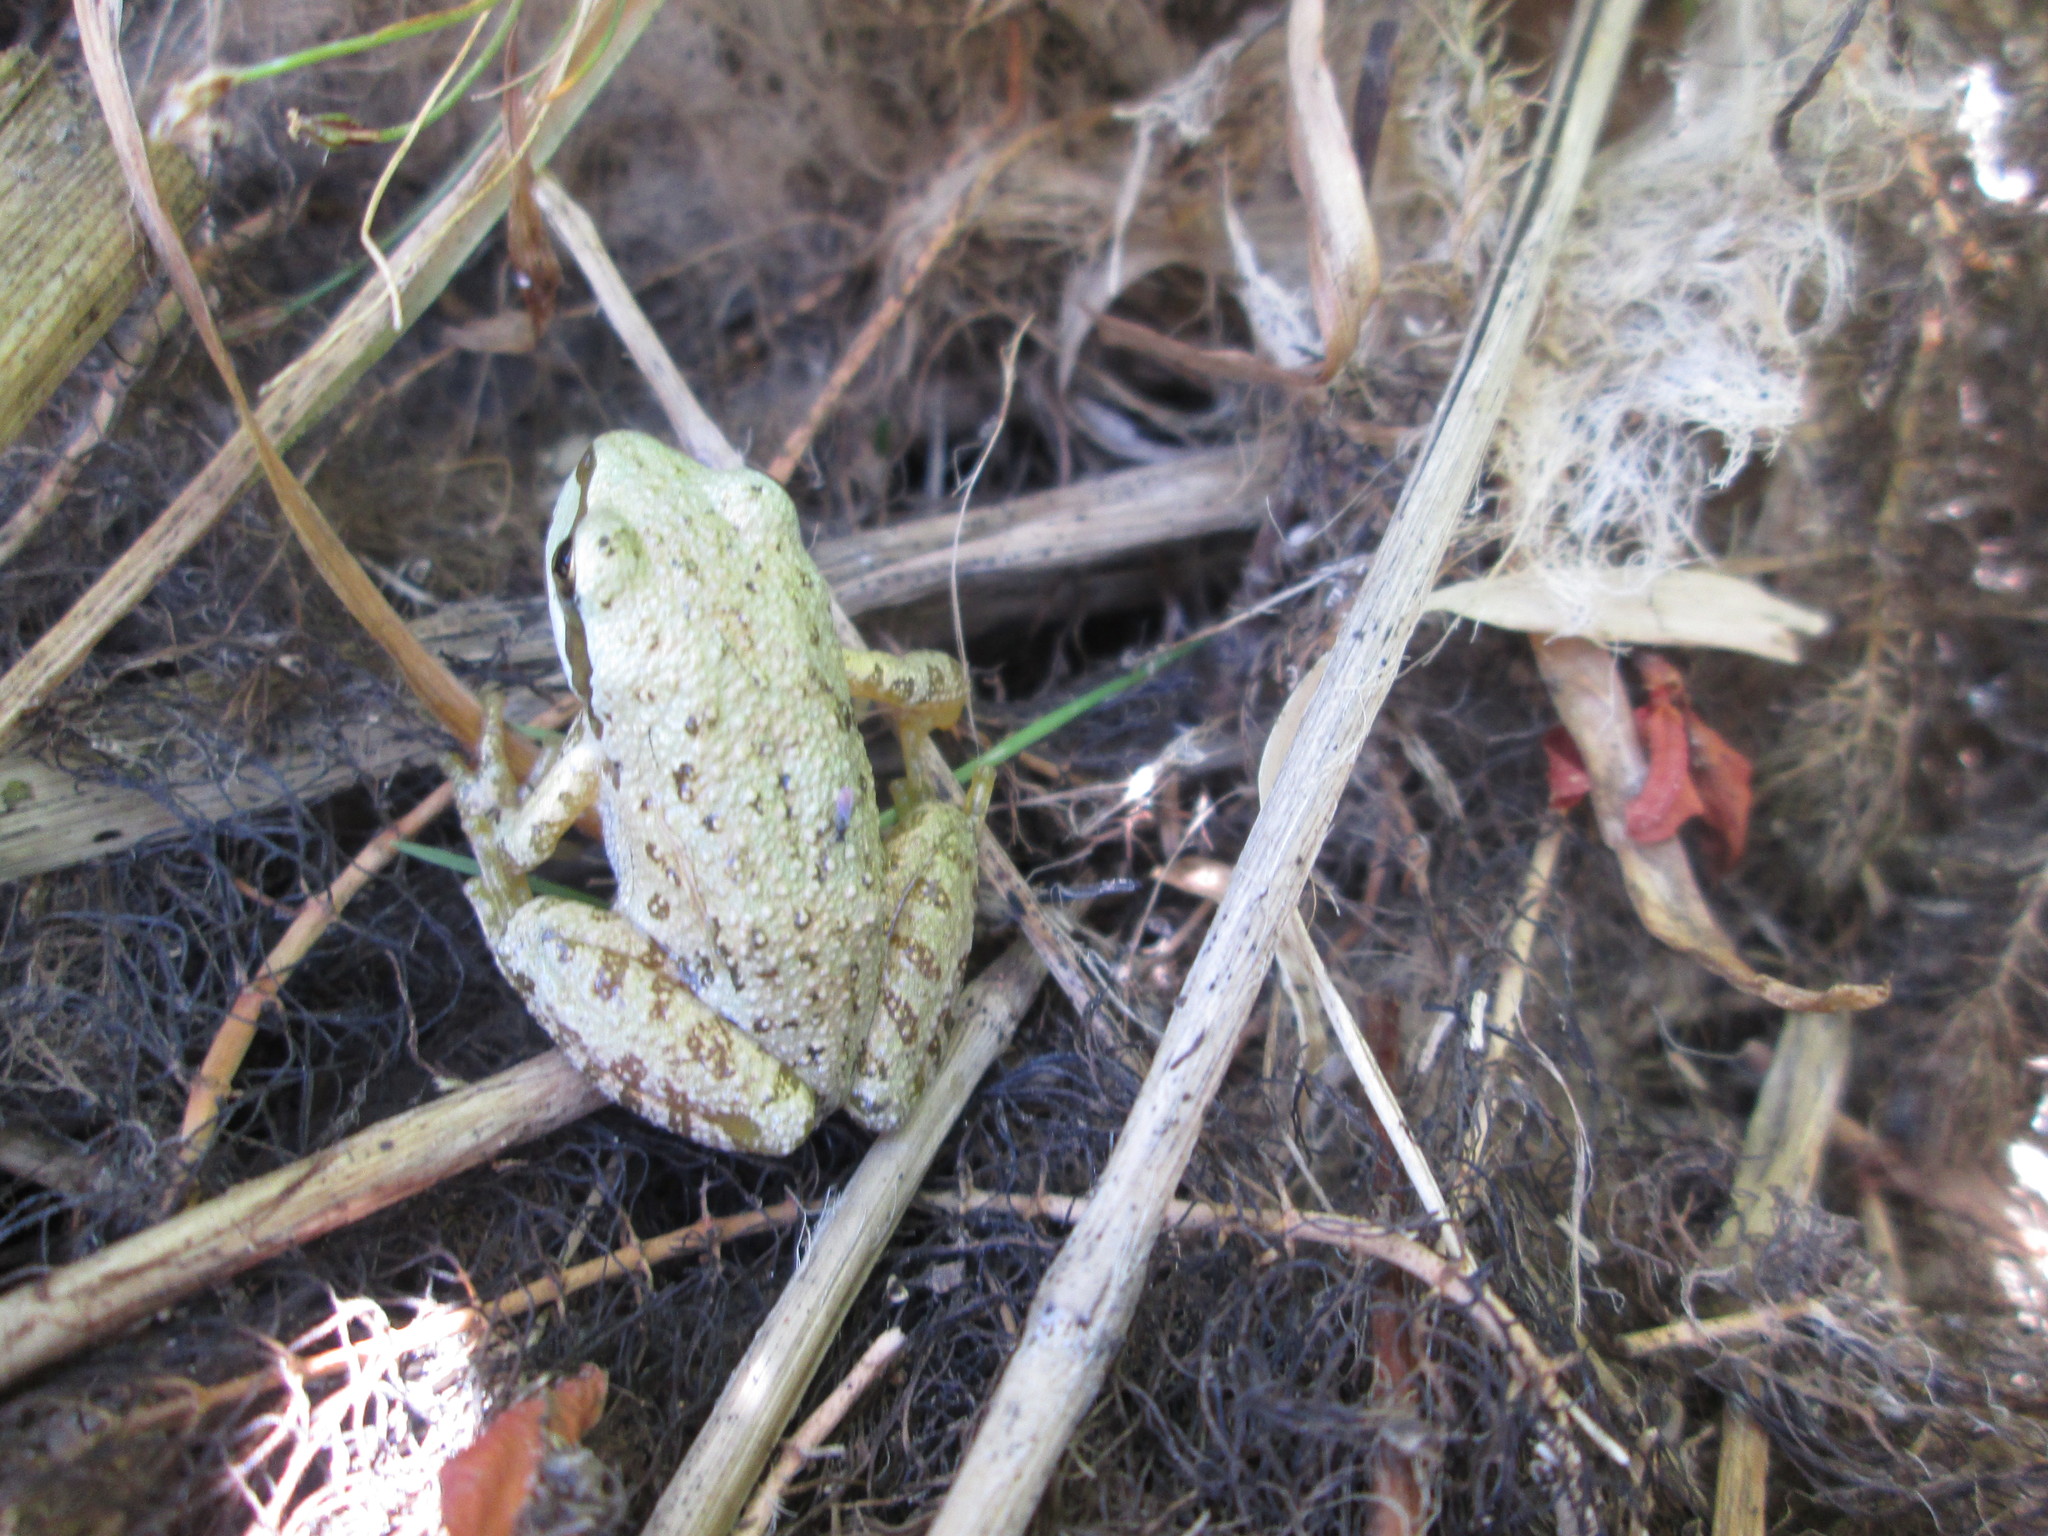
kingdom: Animalia
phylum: Chordata
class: Amphibia
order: Anura
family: Hylidae
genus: Pseudacris
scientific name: Pseudacris regilla
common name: Pacific chorus frog
